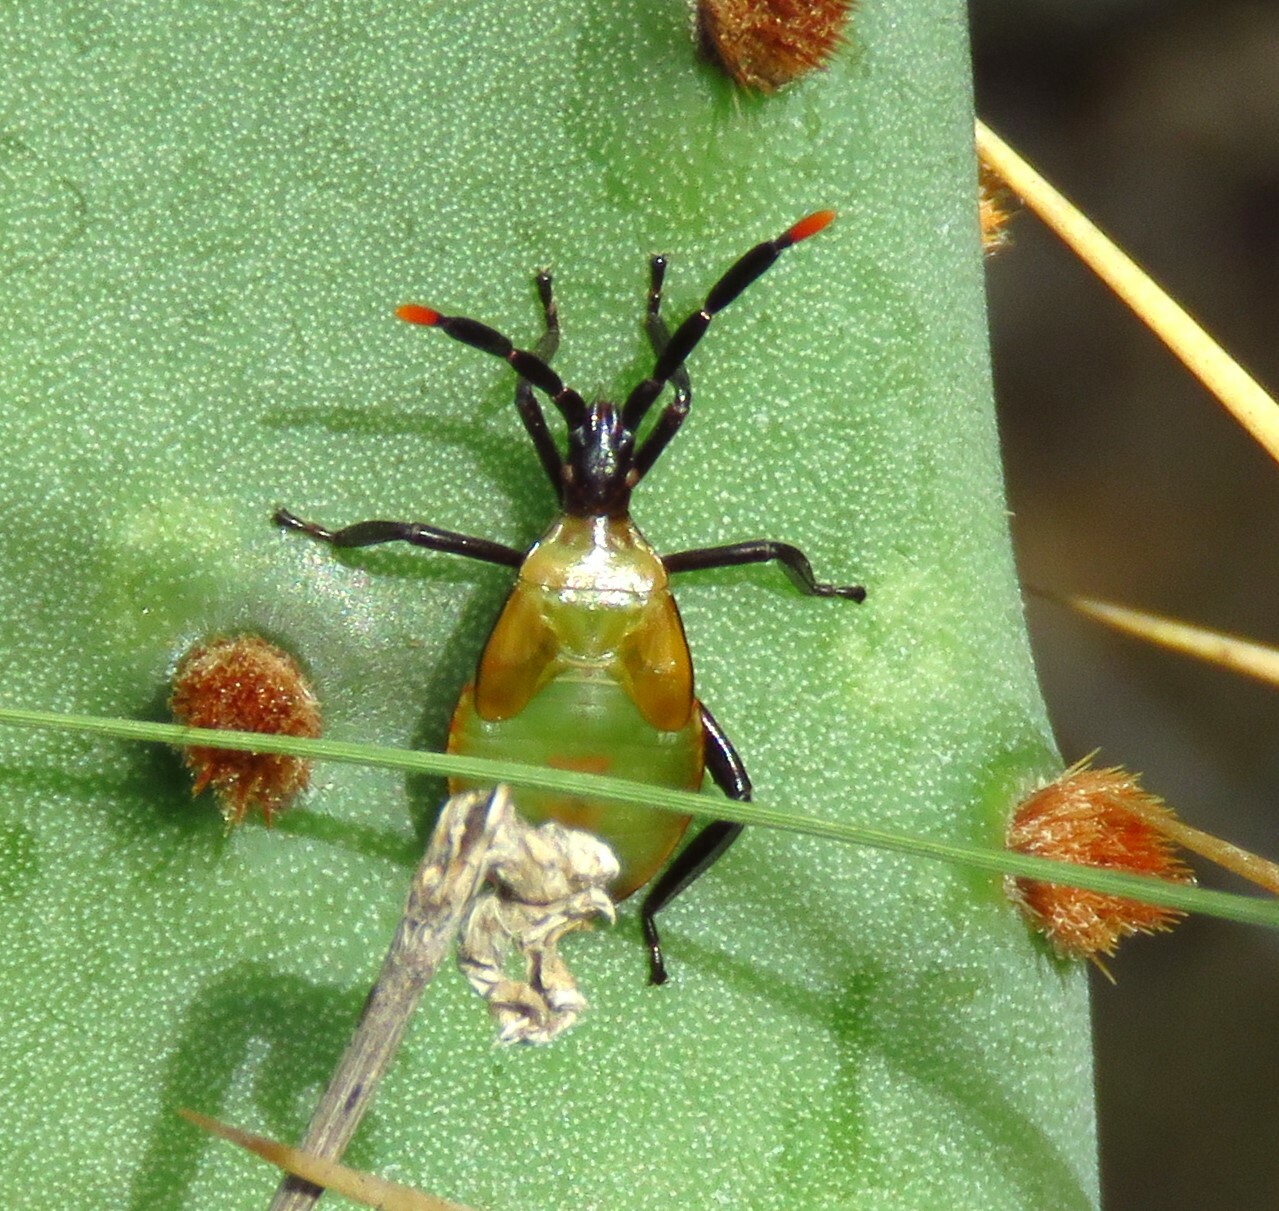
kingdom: Animalia
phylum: Arthropoda
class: Insecta
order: Hemiptera
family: Coreidae
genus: Chelinidea
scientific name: Chelinidea vittiger
